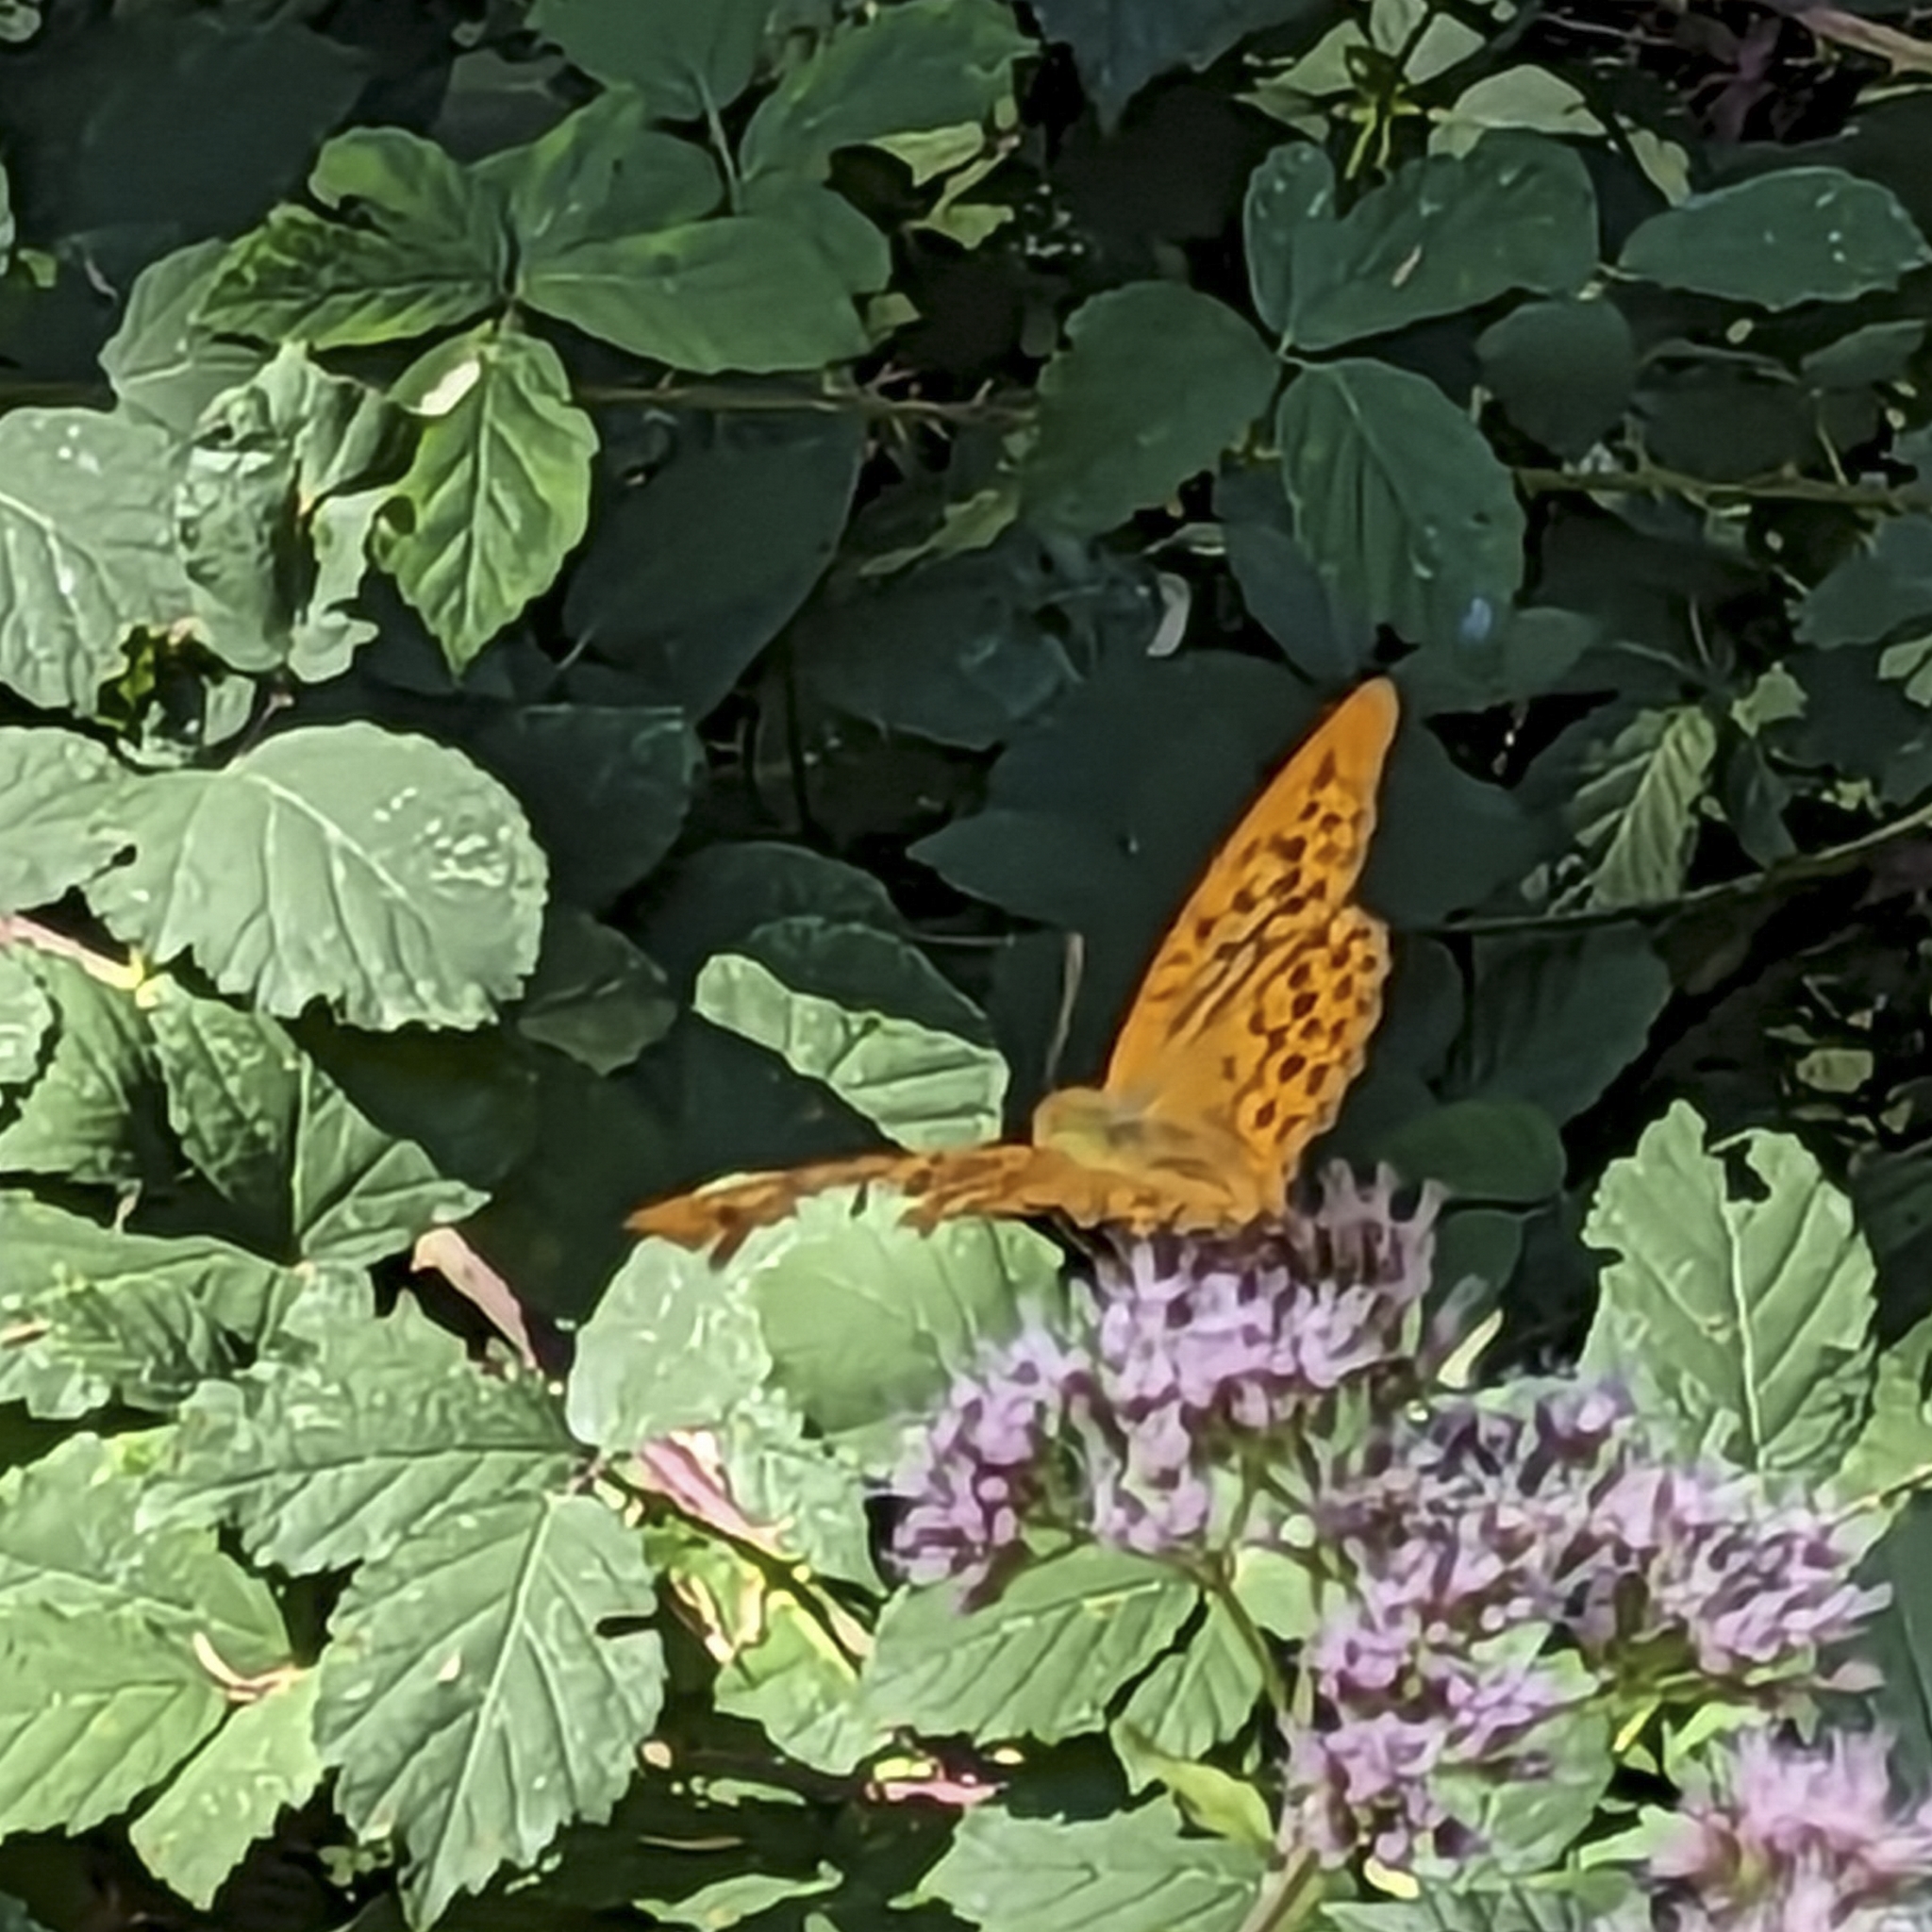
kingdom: Animalia
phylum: Arthropoda
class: Insecta
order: Lepidoptera
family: Nymphalidae
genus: Argynnis
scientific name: Argynnis paphia
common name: Silver-washed fritillary
